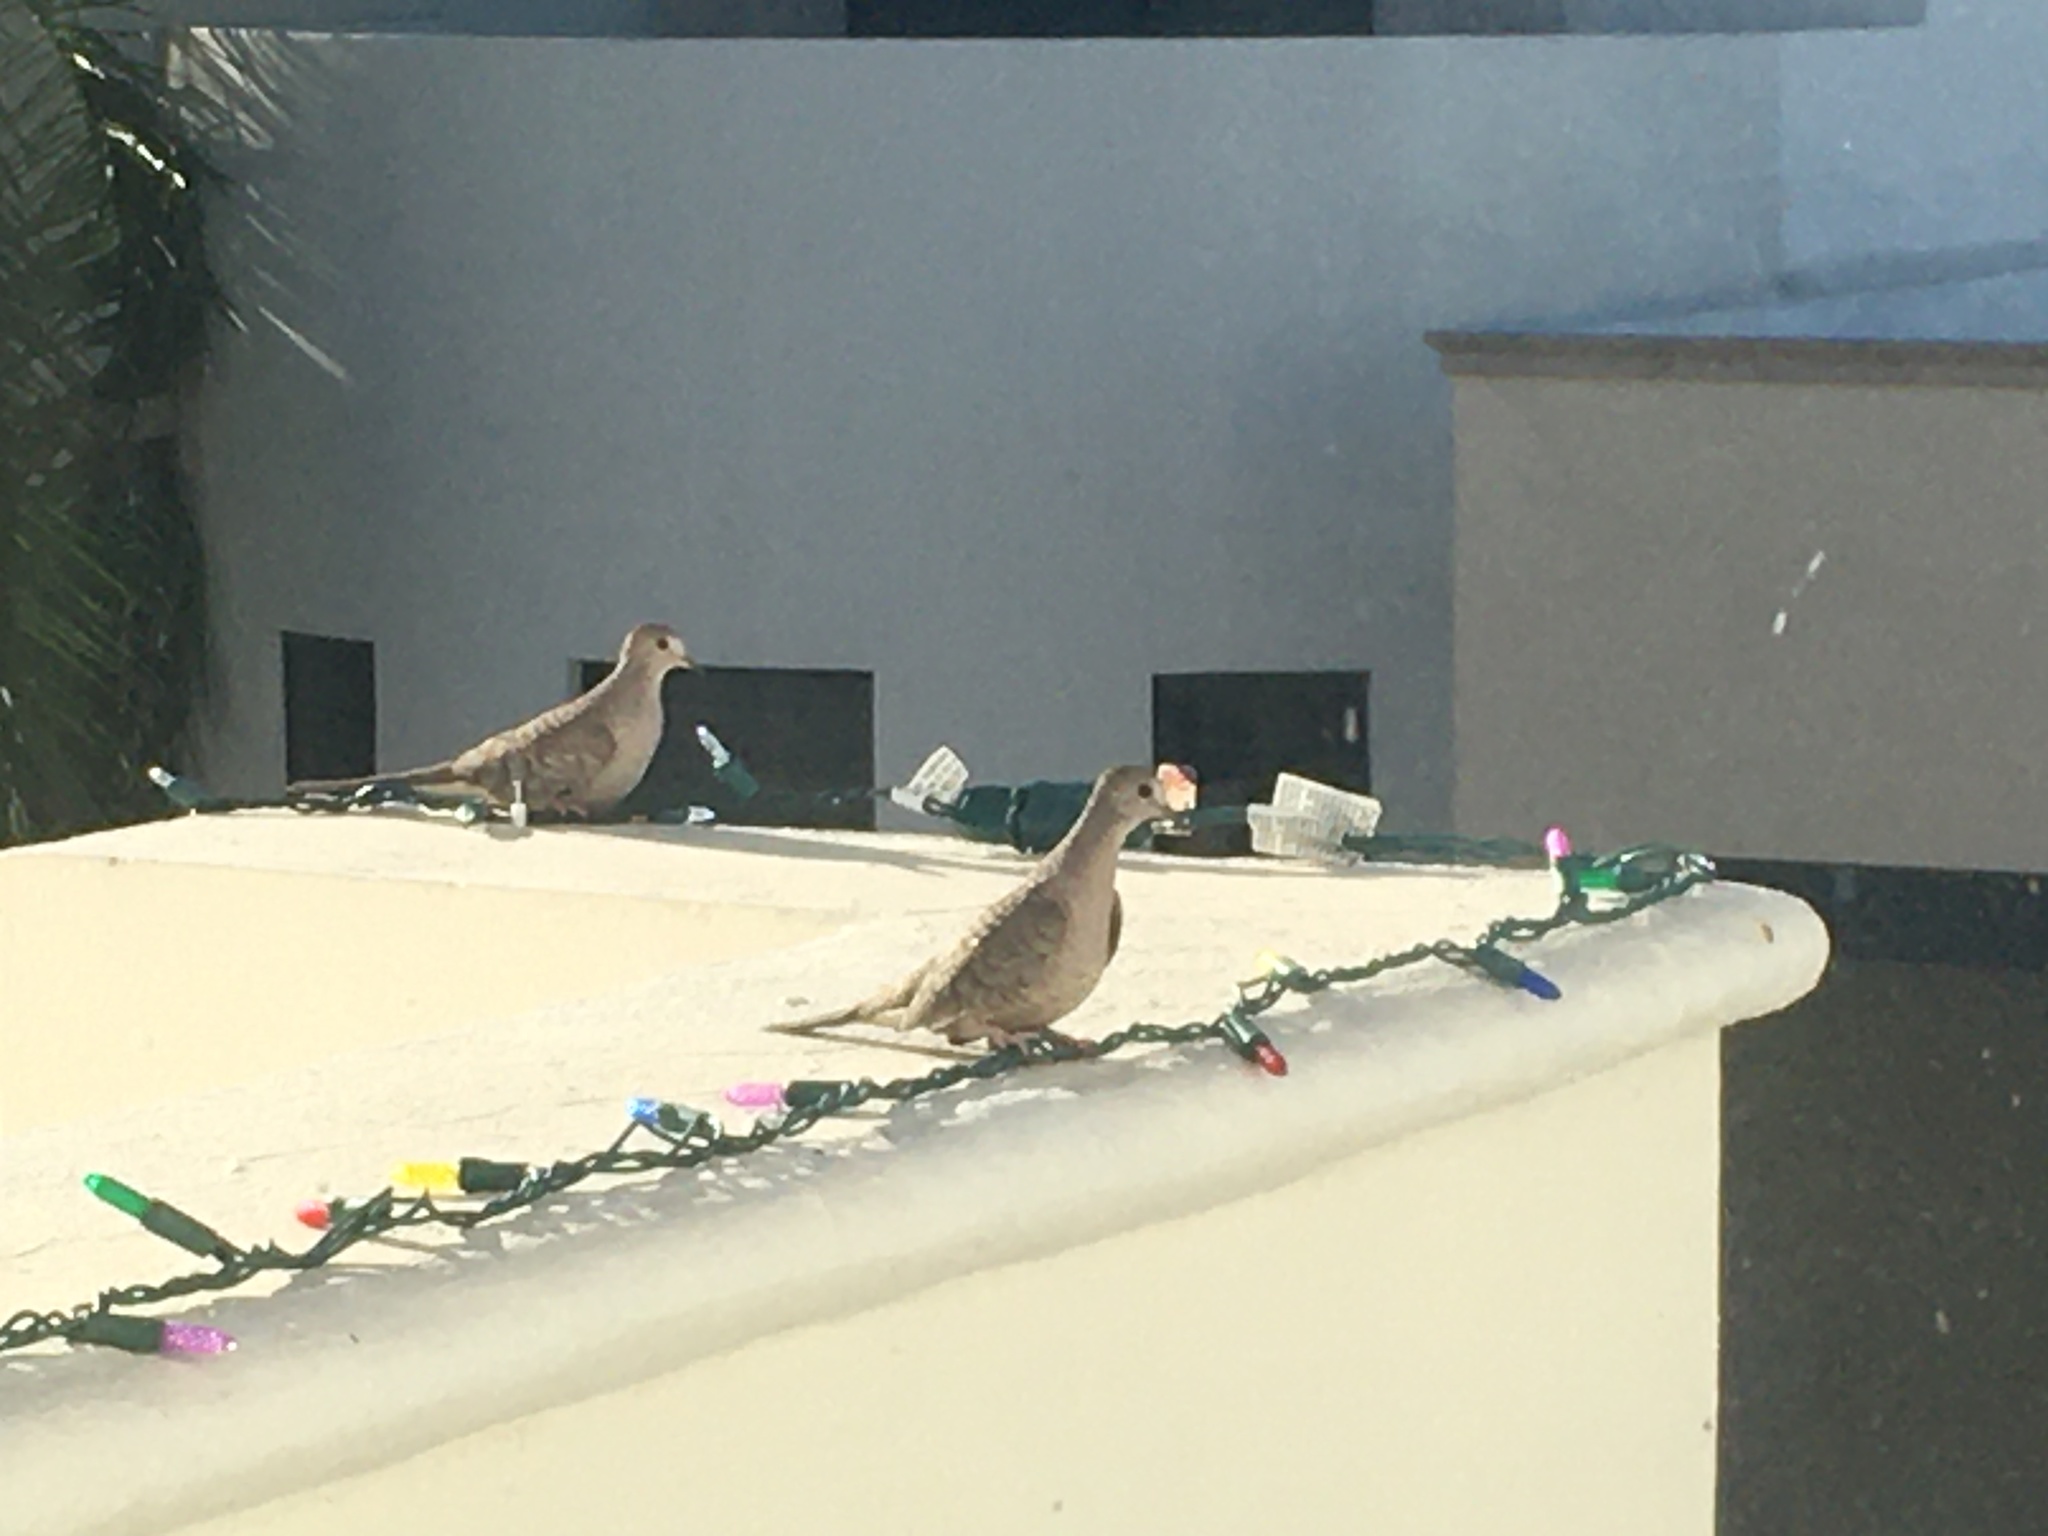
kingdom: Animalia
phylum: Chordata
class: Aves
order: Columbiformes
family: Columbidae
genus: Columbina
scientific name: Columbina inca
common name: Inca dove
